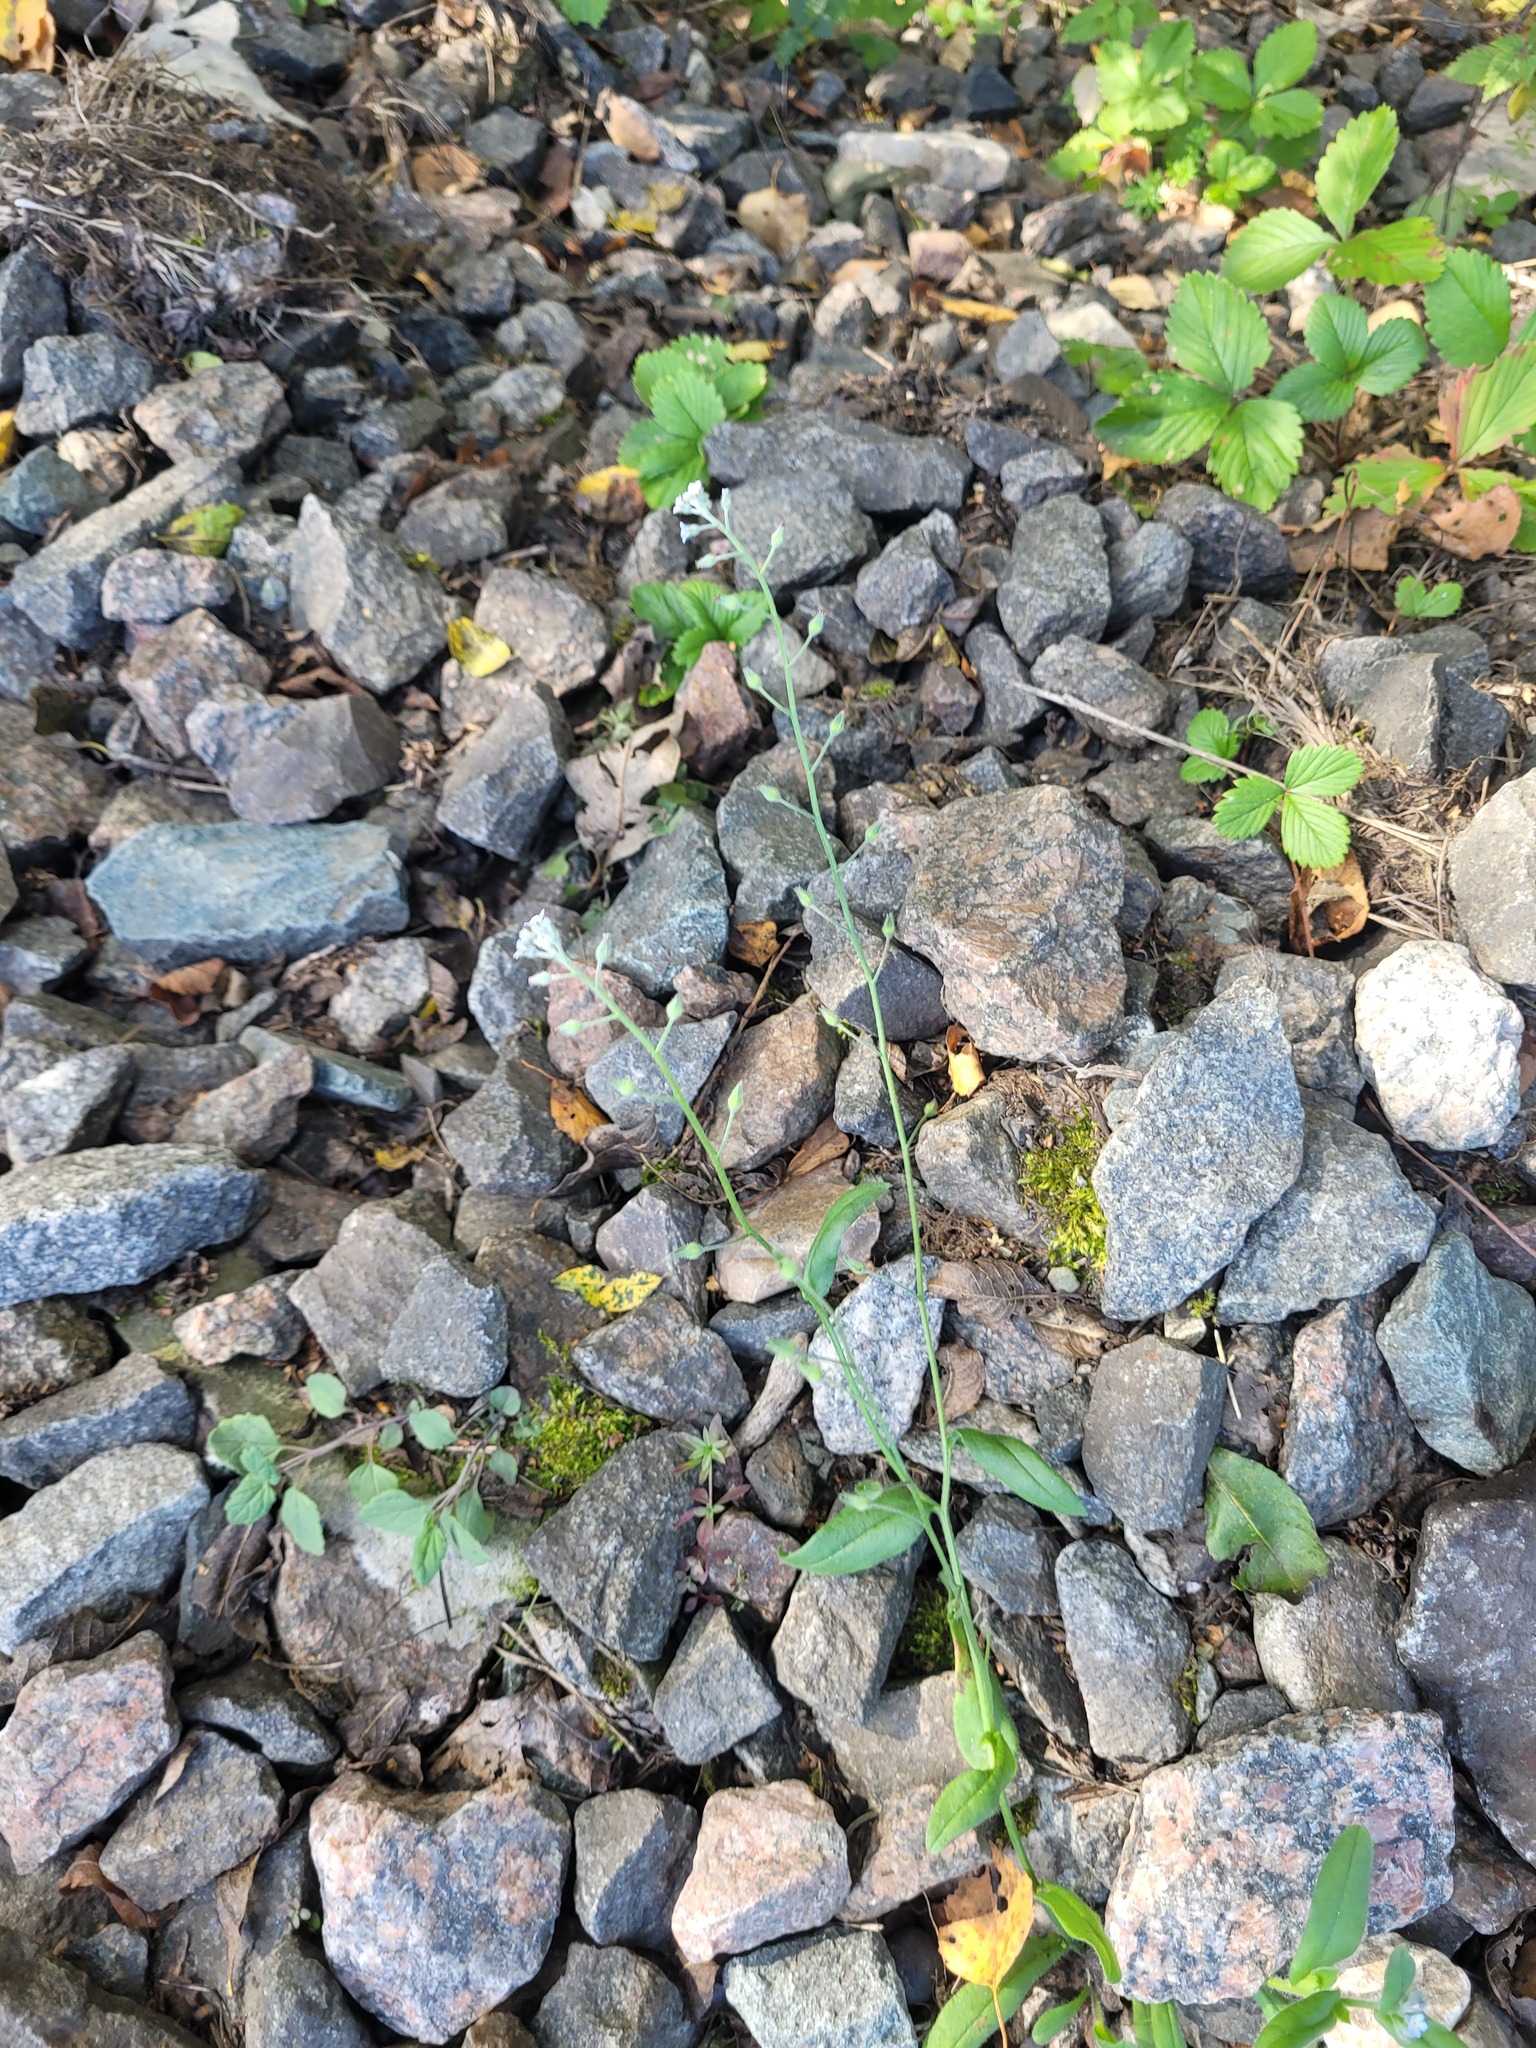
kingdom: Plantae
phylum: Tracheophyta
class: Magnoliopsida
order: Boraginales
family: Boraginaceae
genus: Myosotis
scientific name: Myosotis arvensis
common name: Field forget-me-not
